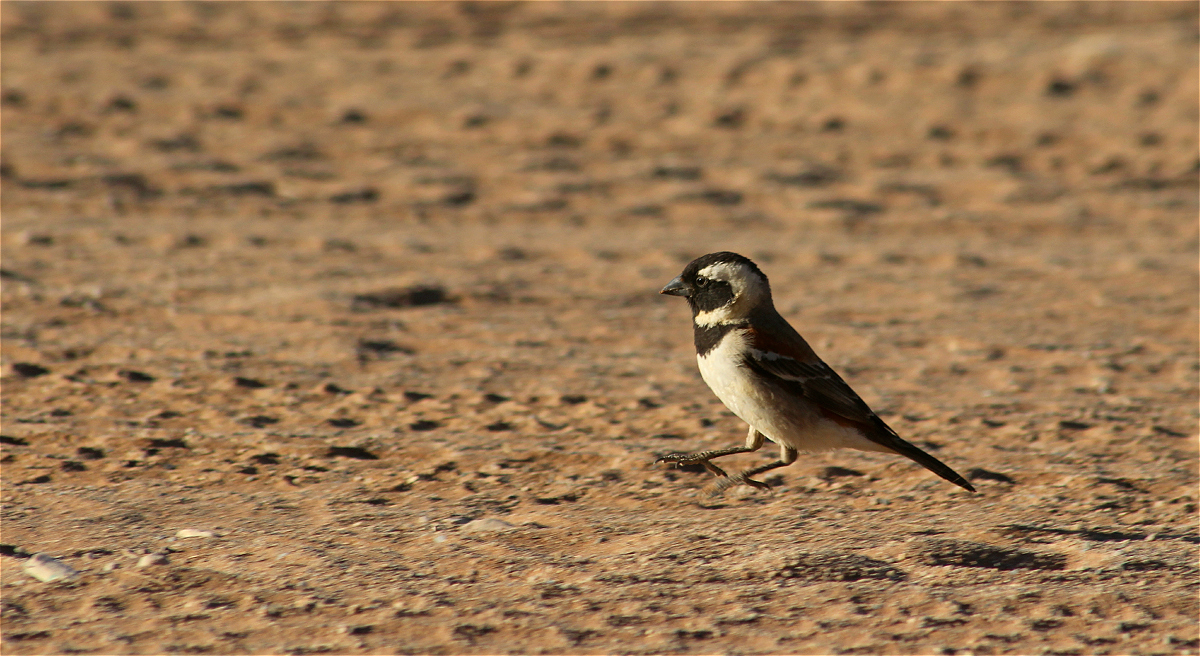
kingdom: Animalia
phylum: Chordata
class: Aves
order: Passeriformes
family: Passeridae
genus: Passer
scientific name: Passer melanurus
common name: Cape sparrow
